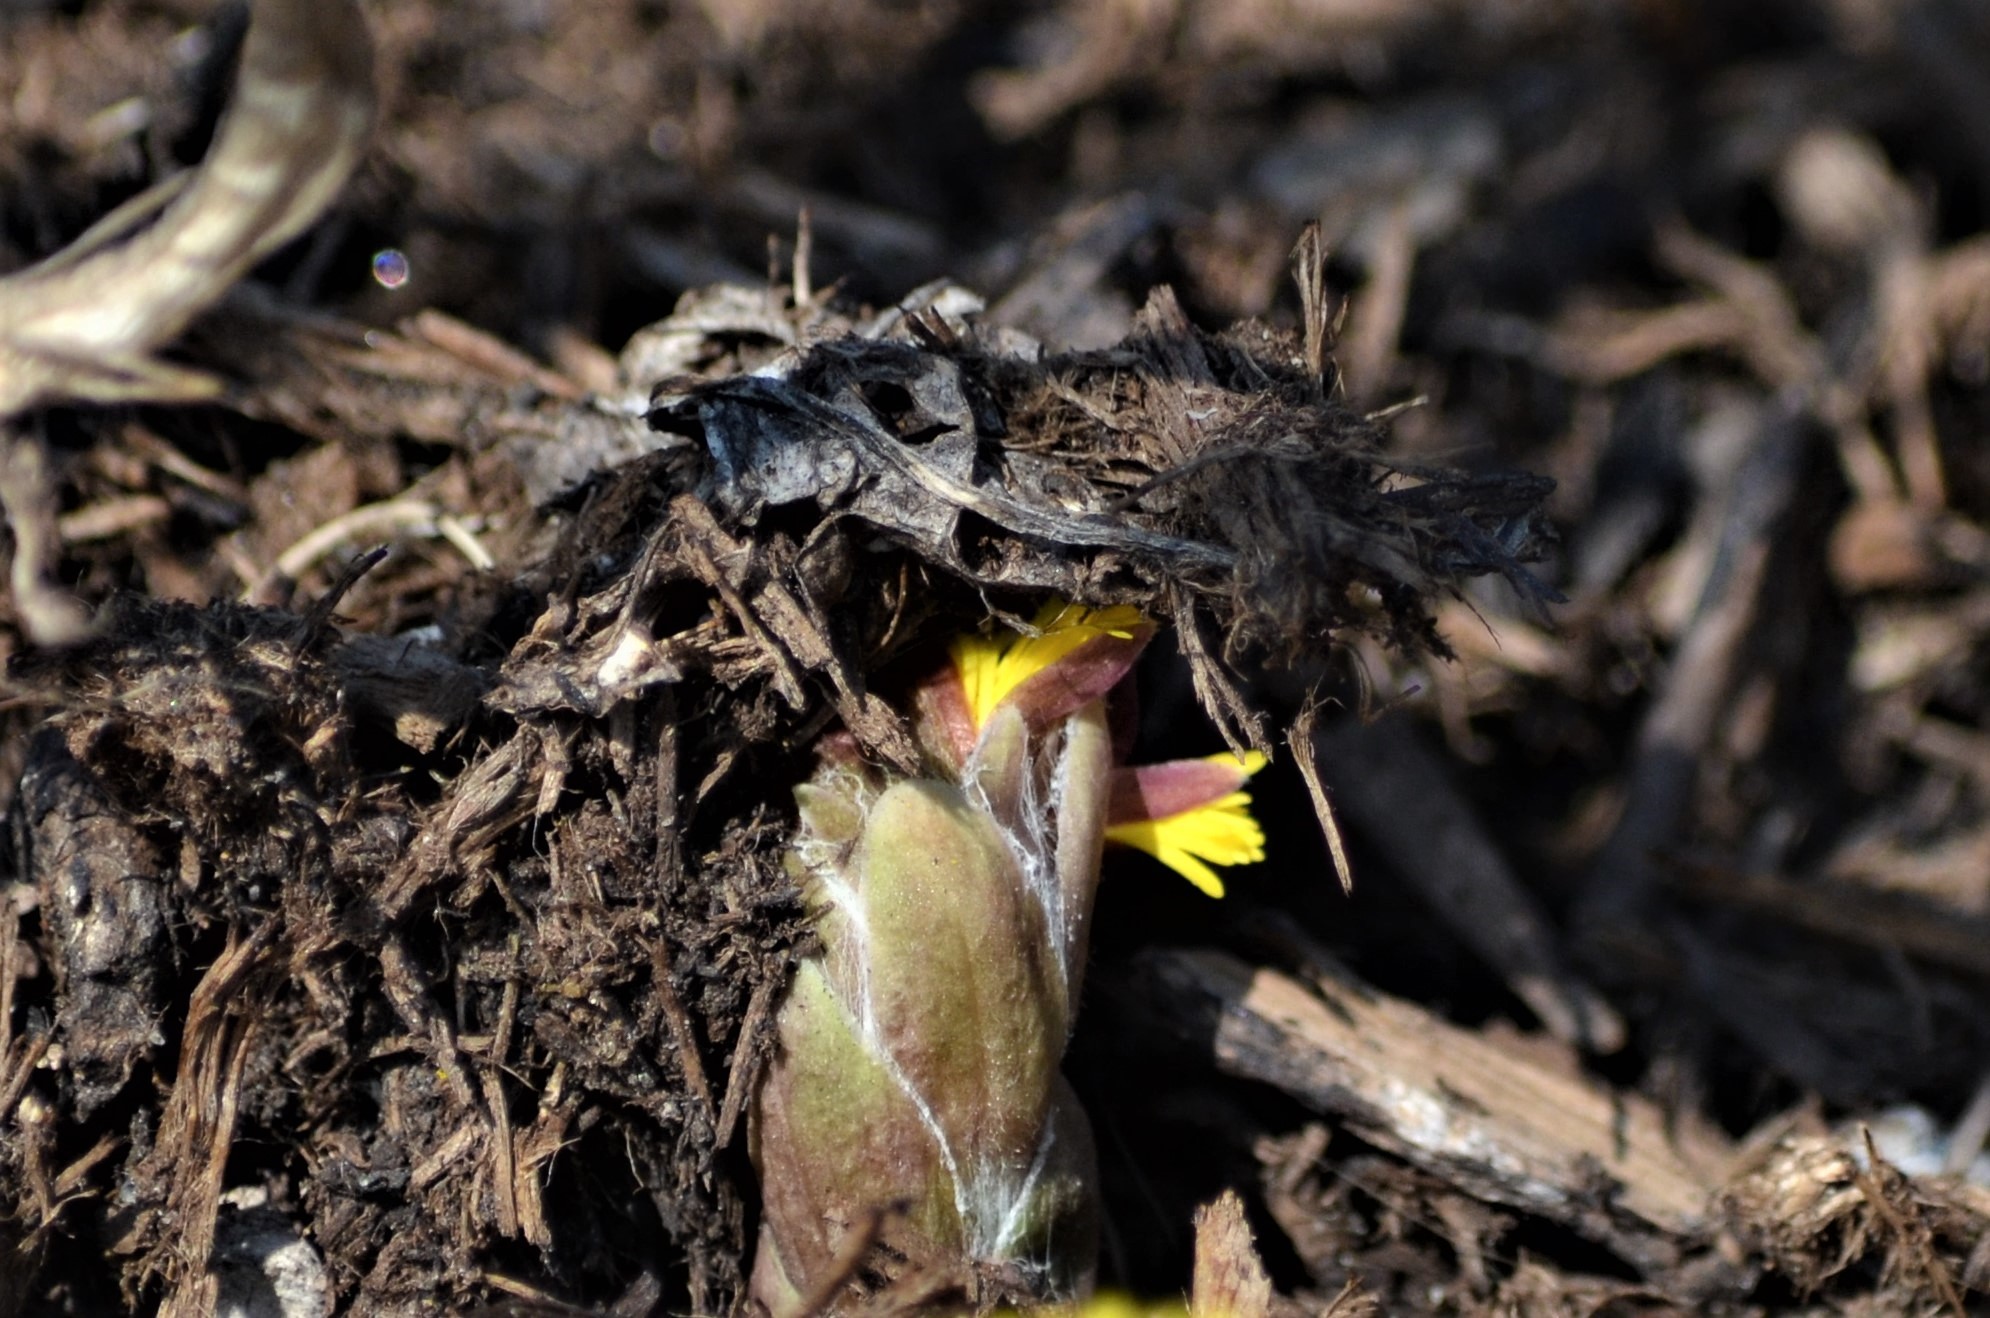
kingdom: Plantae
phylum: Tracheophyta
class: Magnoliopsida
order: Asterales
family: Asteraceae
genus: Tussilago
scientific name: Tussilago farfara
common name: Coltsfoot
